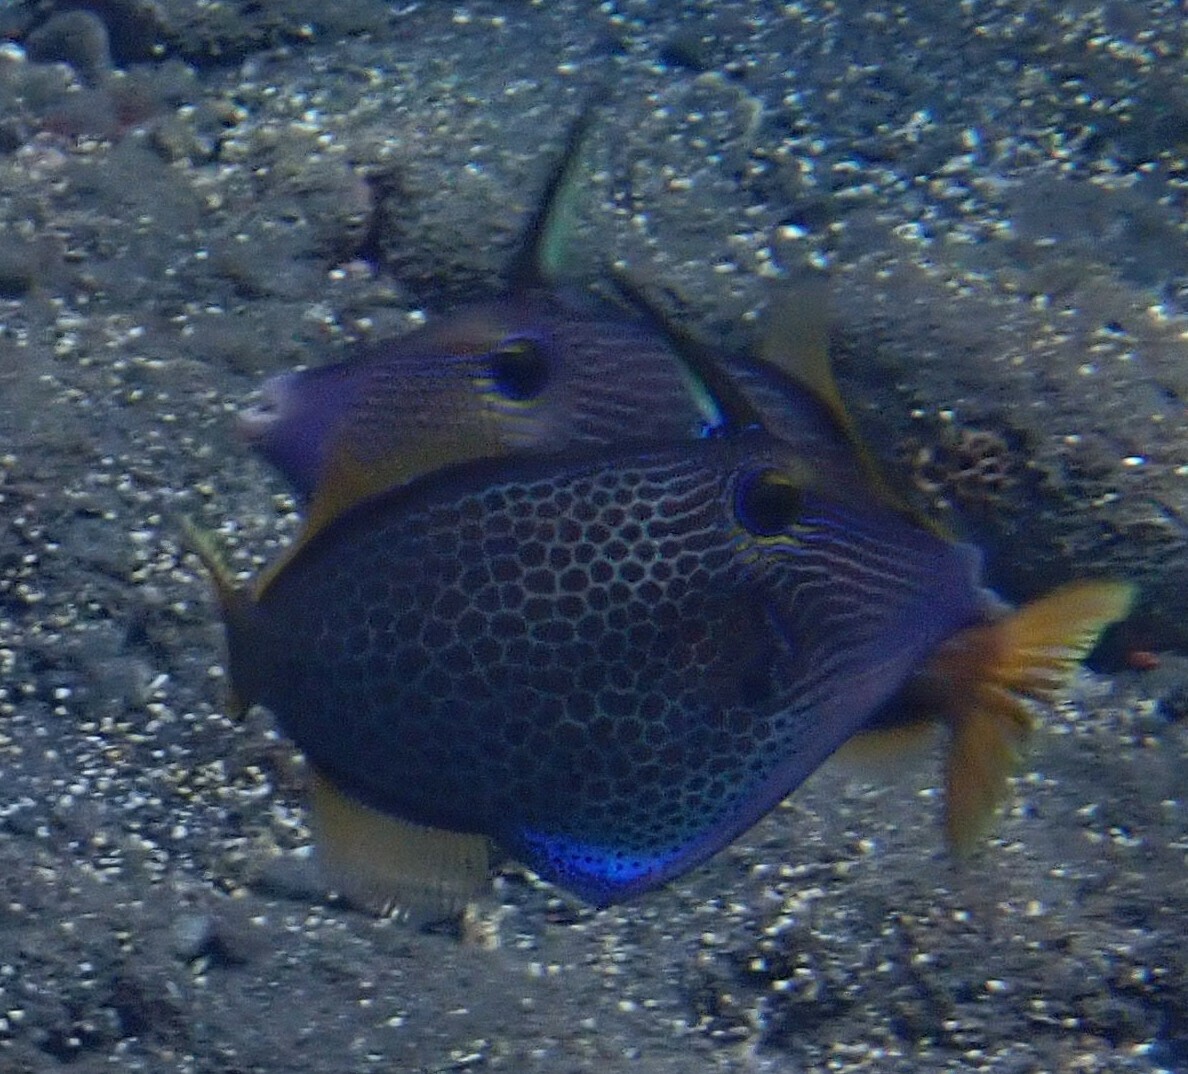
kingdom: Animalia
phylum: Chordata
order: Tetraodontiformes
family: Monacanthidae
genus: Cantherhines
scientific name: Cantherhines pardalis
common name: Honeycomb filefish
